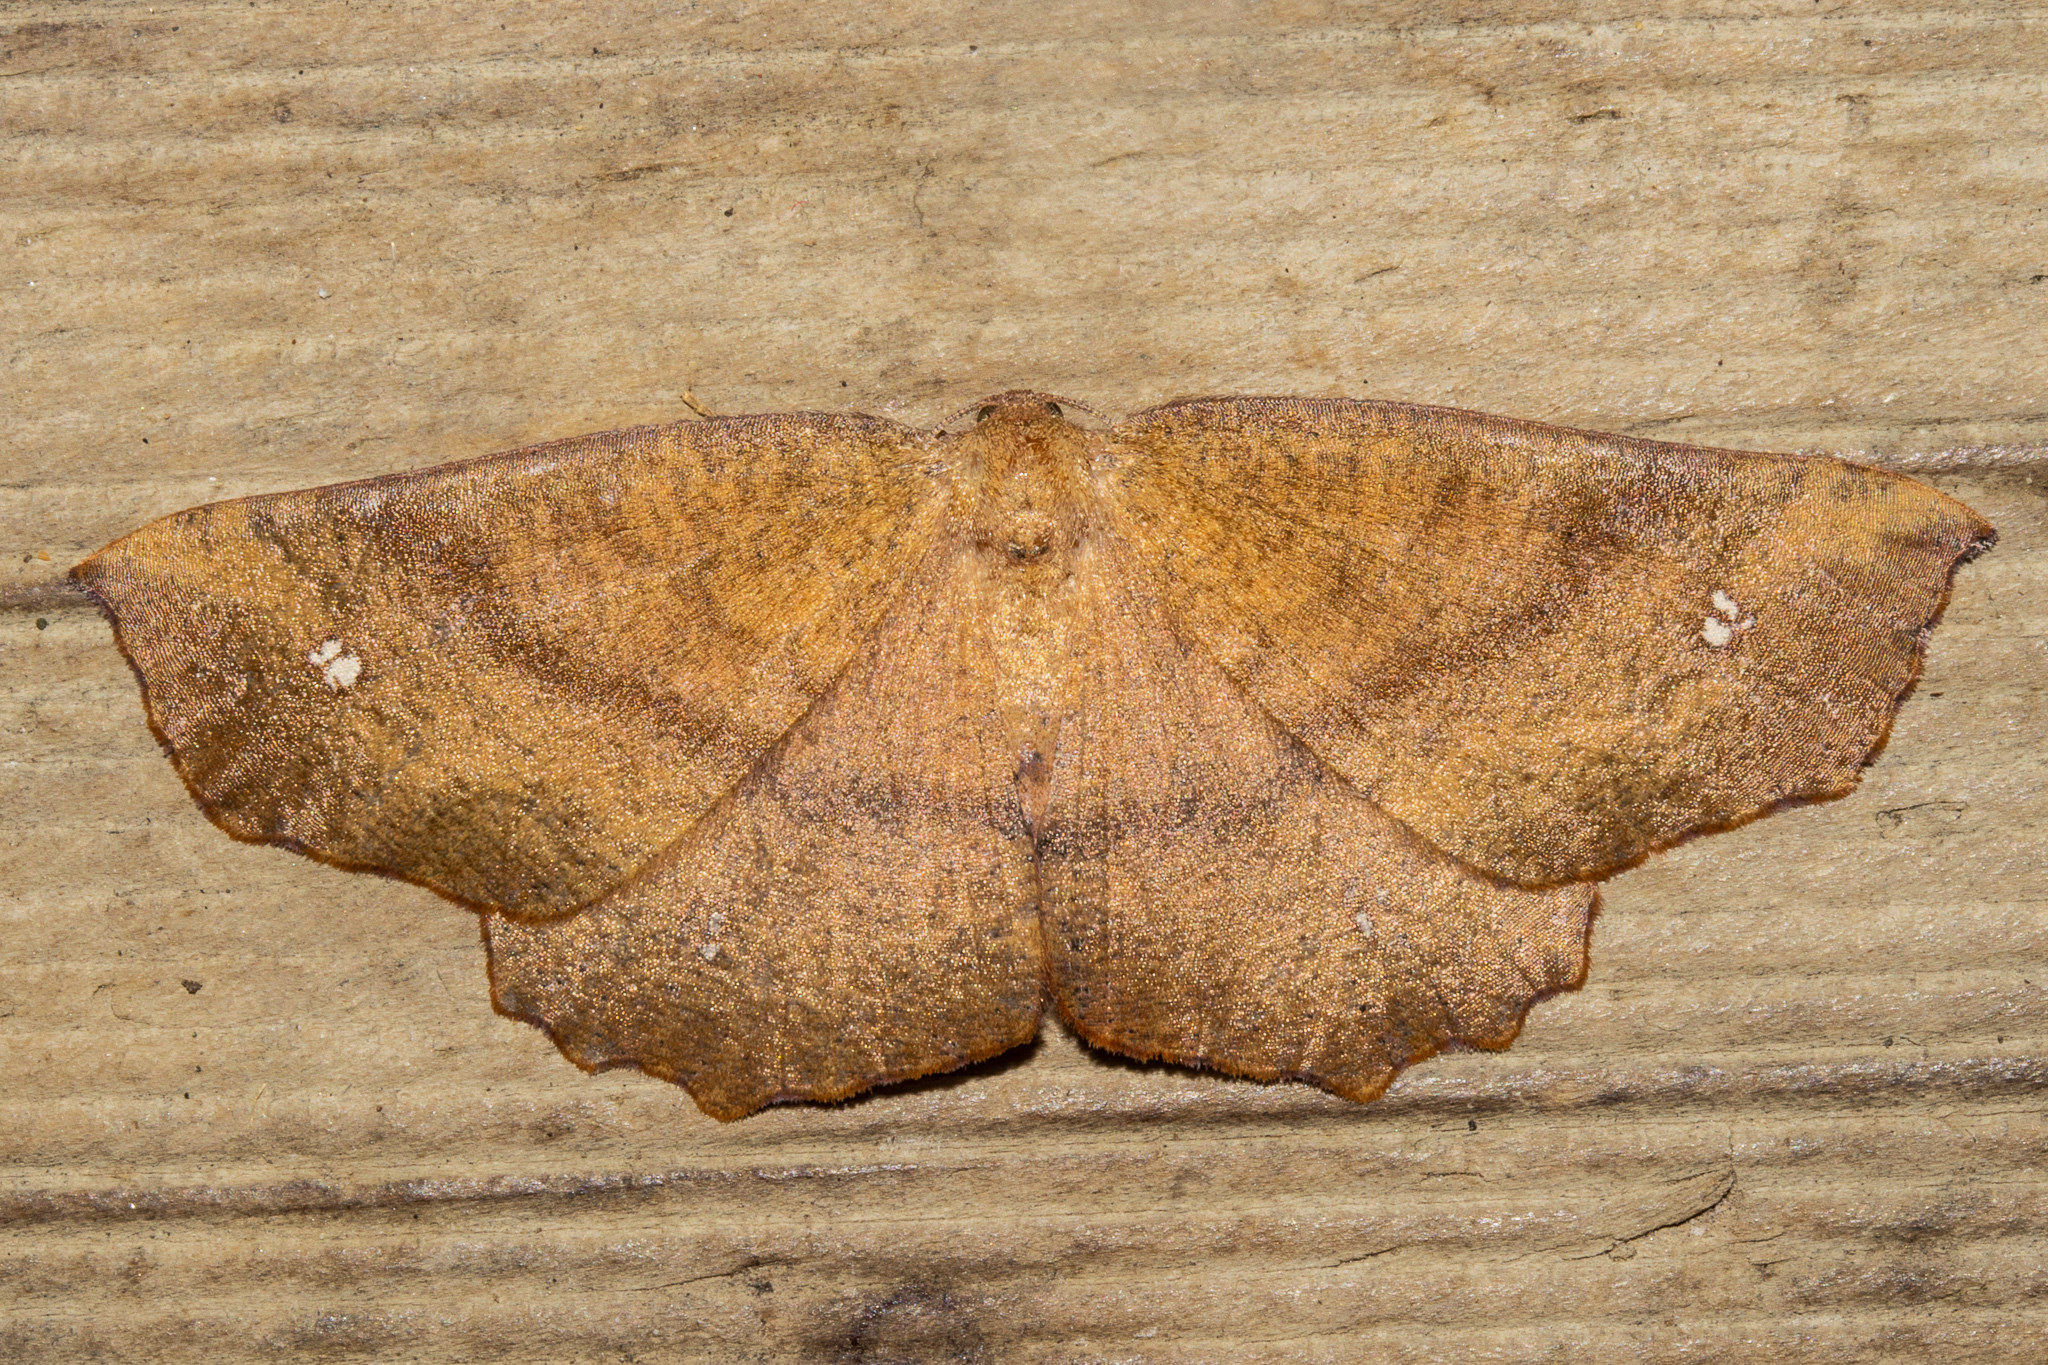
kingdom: Animalia
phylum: Arthropoda
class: Insecta
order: Lepidoptera
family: Geometridae
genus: Xyridacma
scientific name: Xyridacma ustaria
